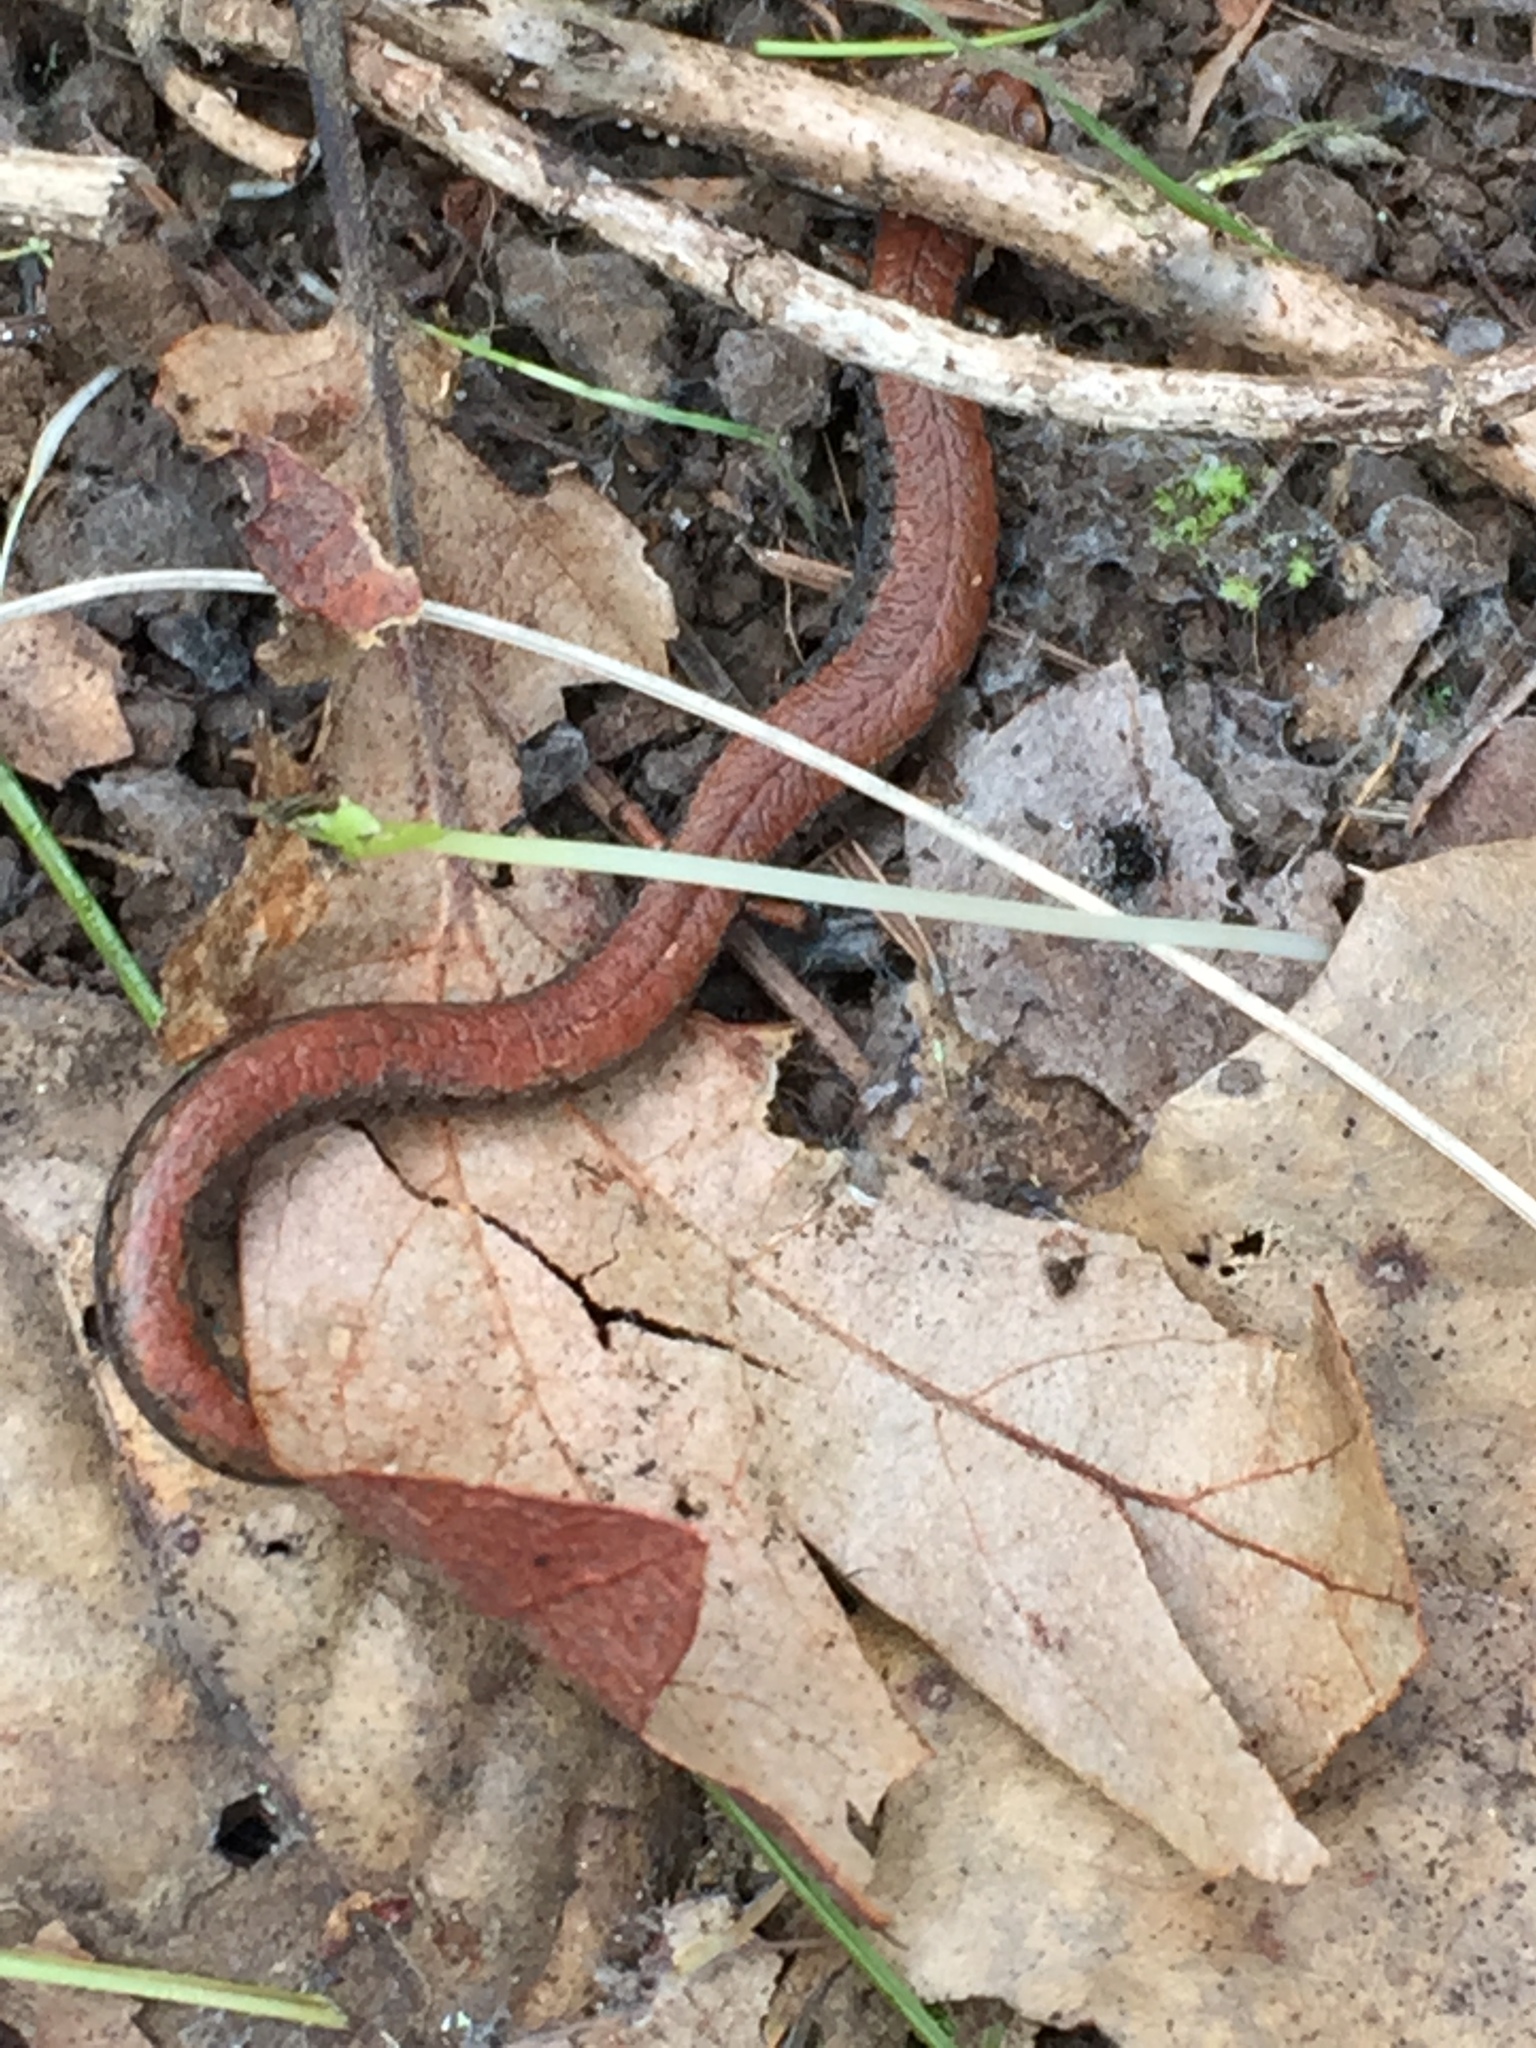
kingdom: Animalia
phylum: Chordata
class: Amphibia
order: Caudata
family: Plethodontidae
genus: Batrachoseps
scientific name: Batrachoseps attenuatus
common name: California slender salamander
